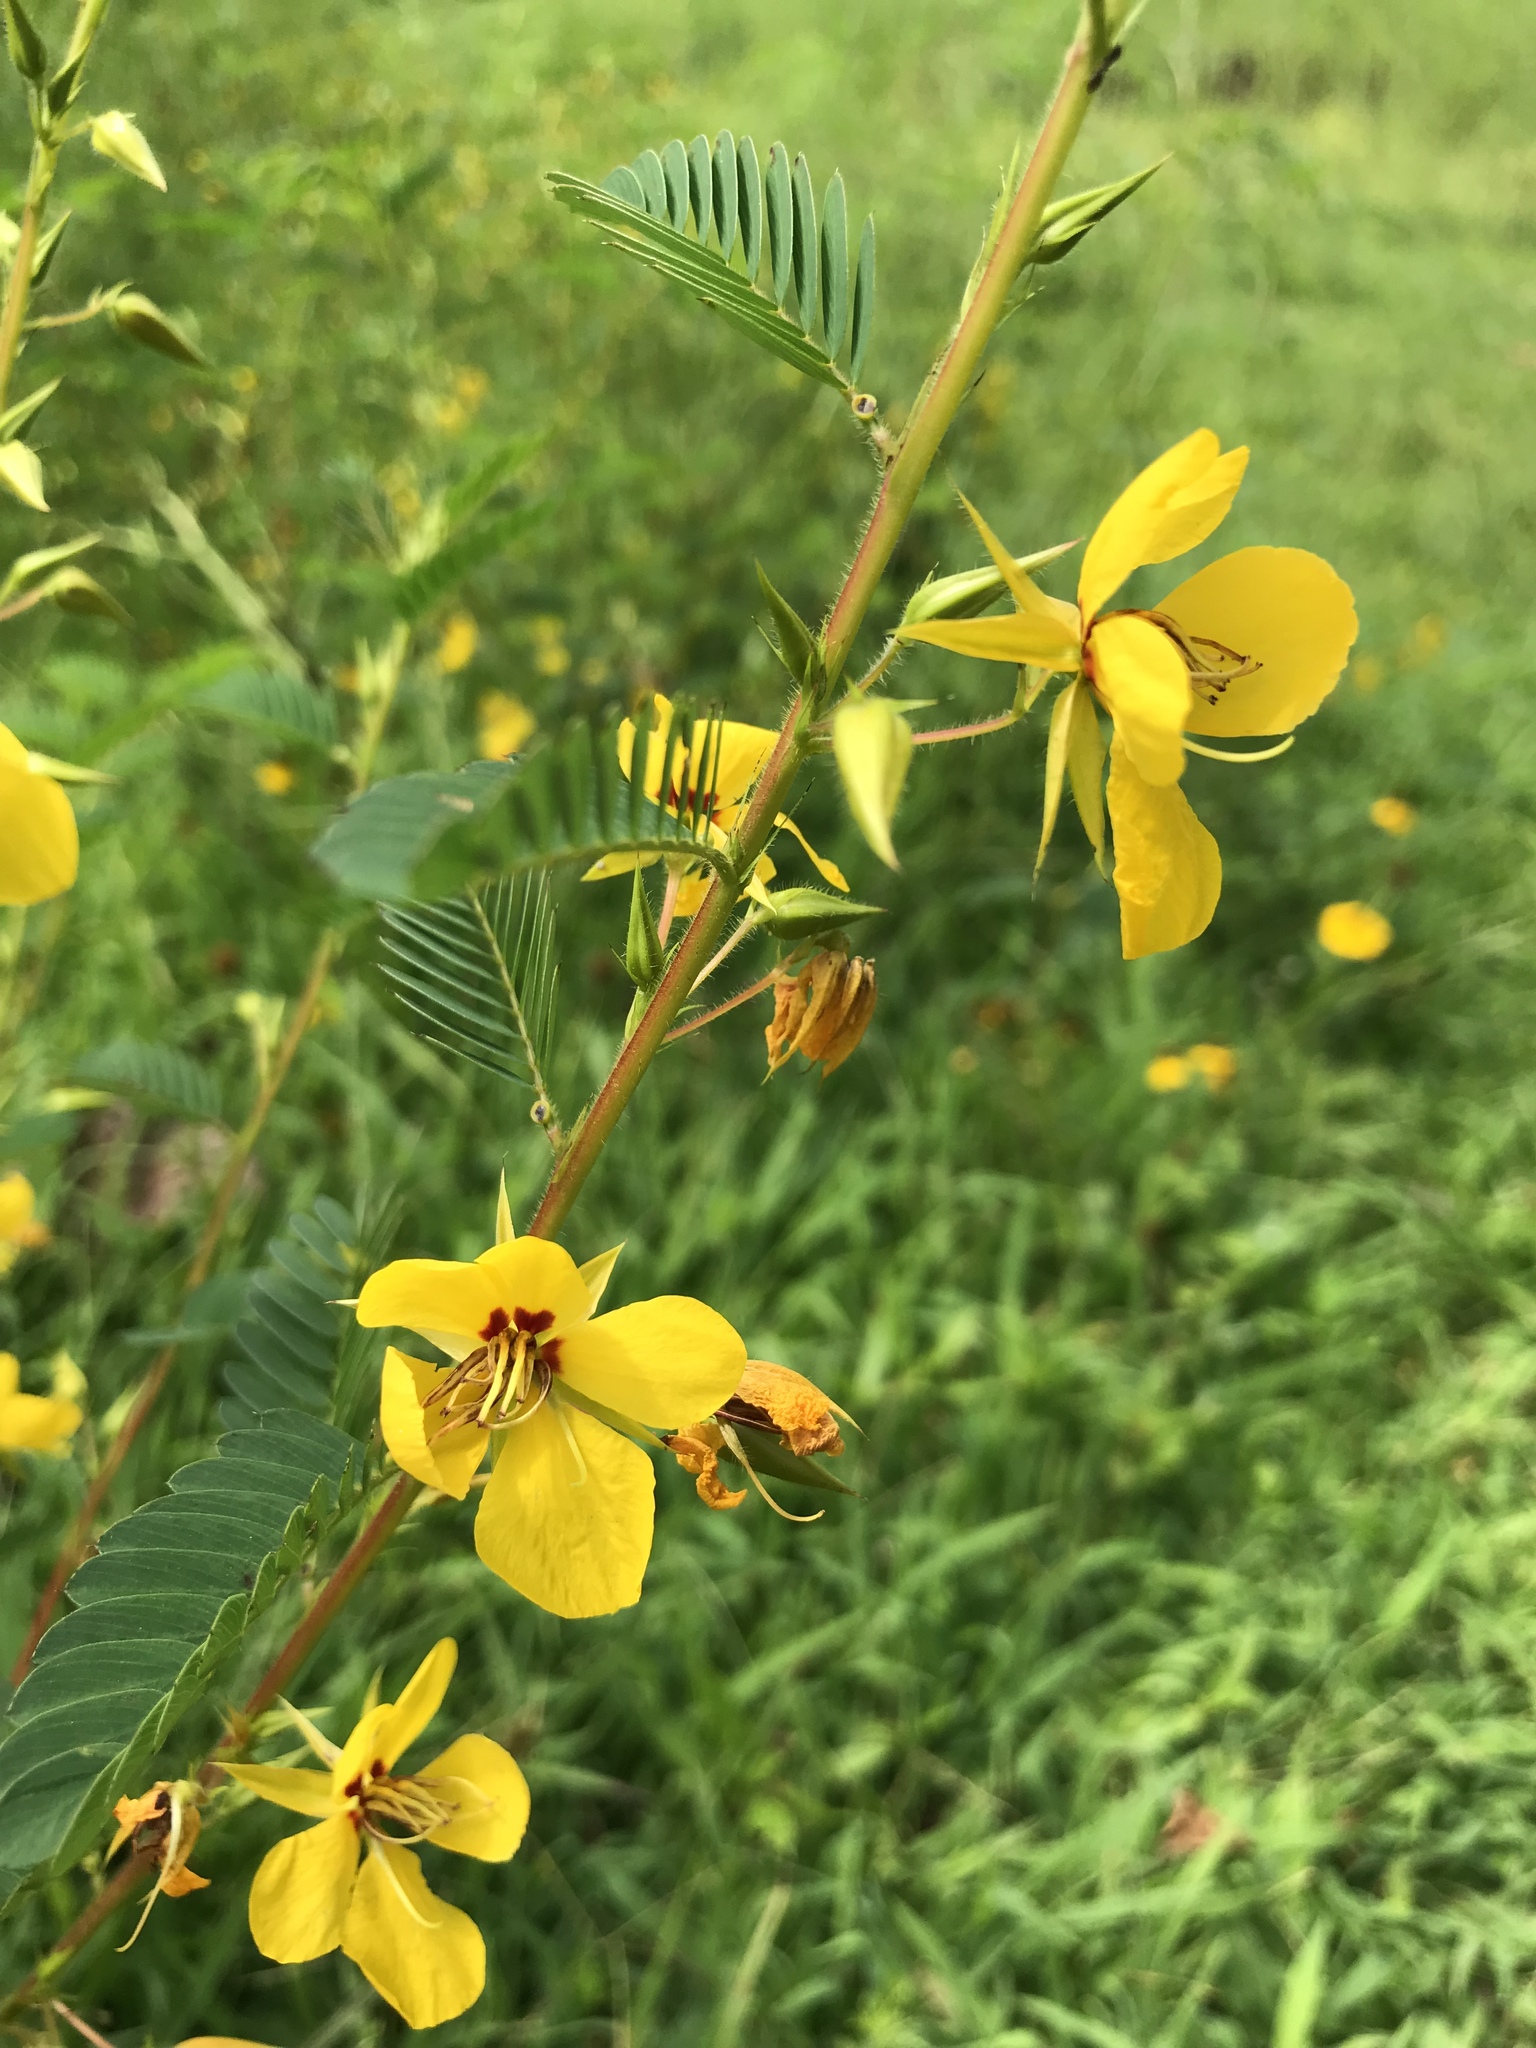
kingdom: Plantae
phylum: Tracheophyta
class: Magnoliopsida
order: Fabales
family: Fabaceae
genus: Chamaecrista
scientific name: Chamaecrista fasciculata
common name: Golden cassia
